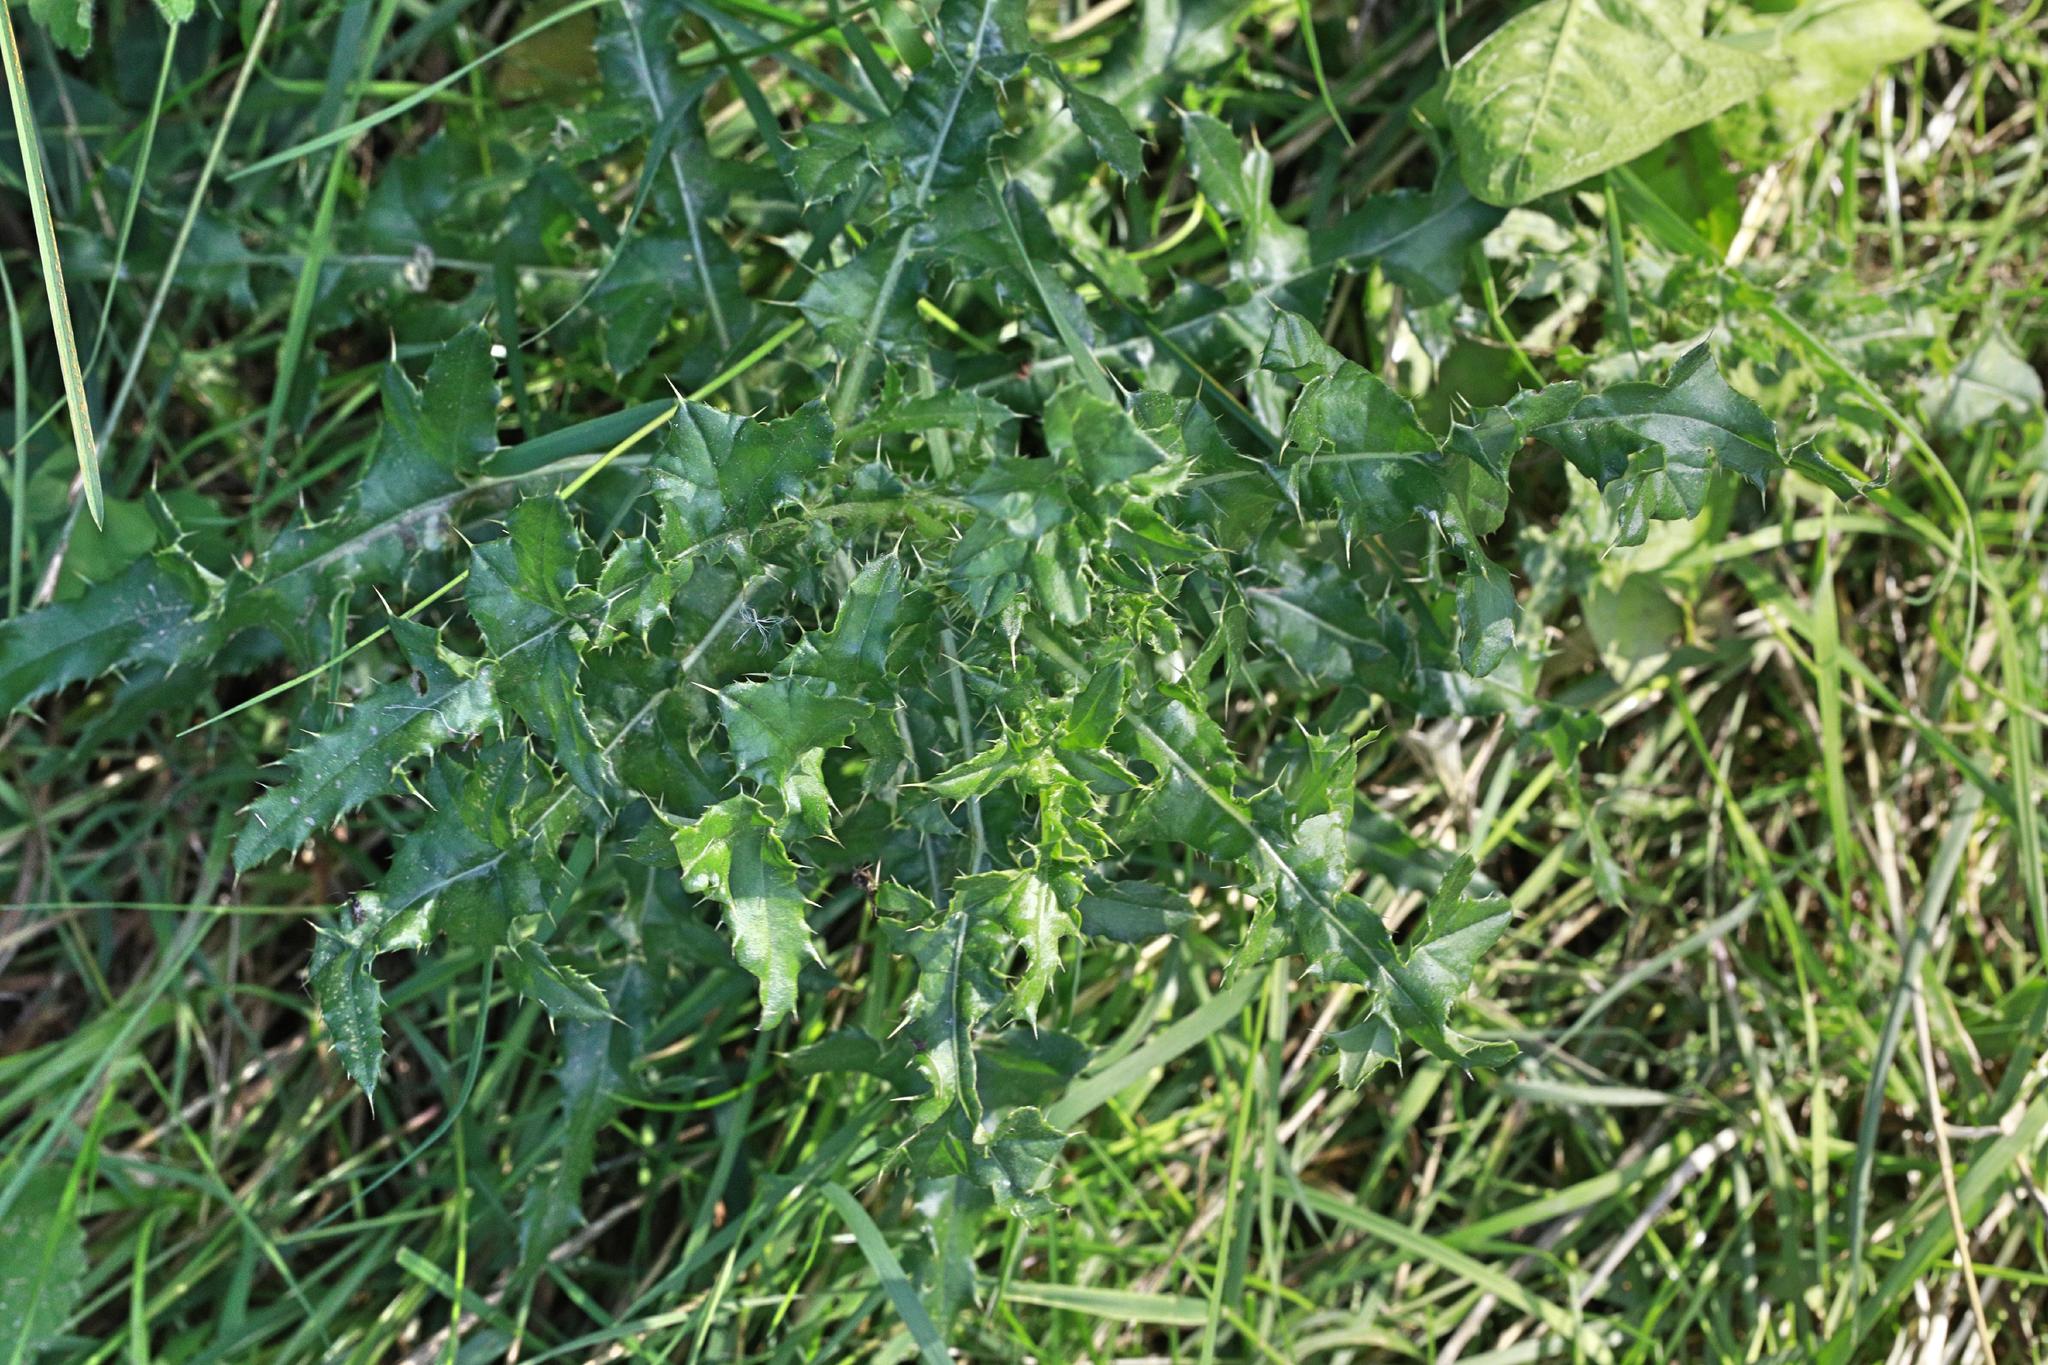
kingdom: Plantae
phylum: Tracheophyta
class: Magnoliopsida
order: Asterales
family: Asteraceae
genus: Cirsium
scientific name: Cirsium arvense
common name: Creeping thistle
